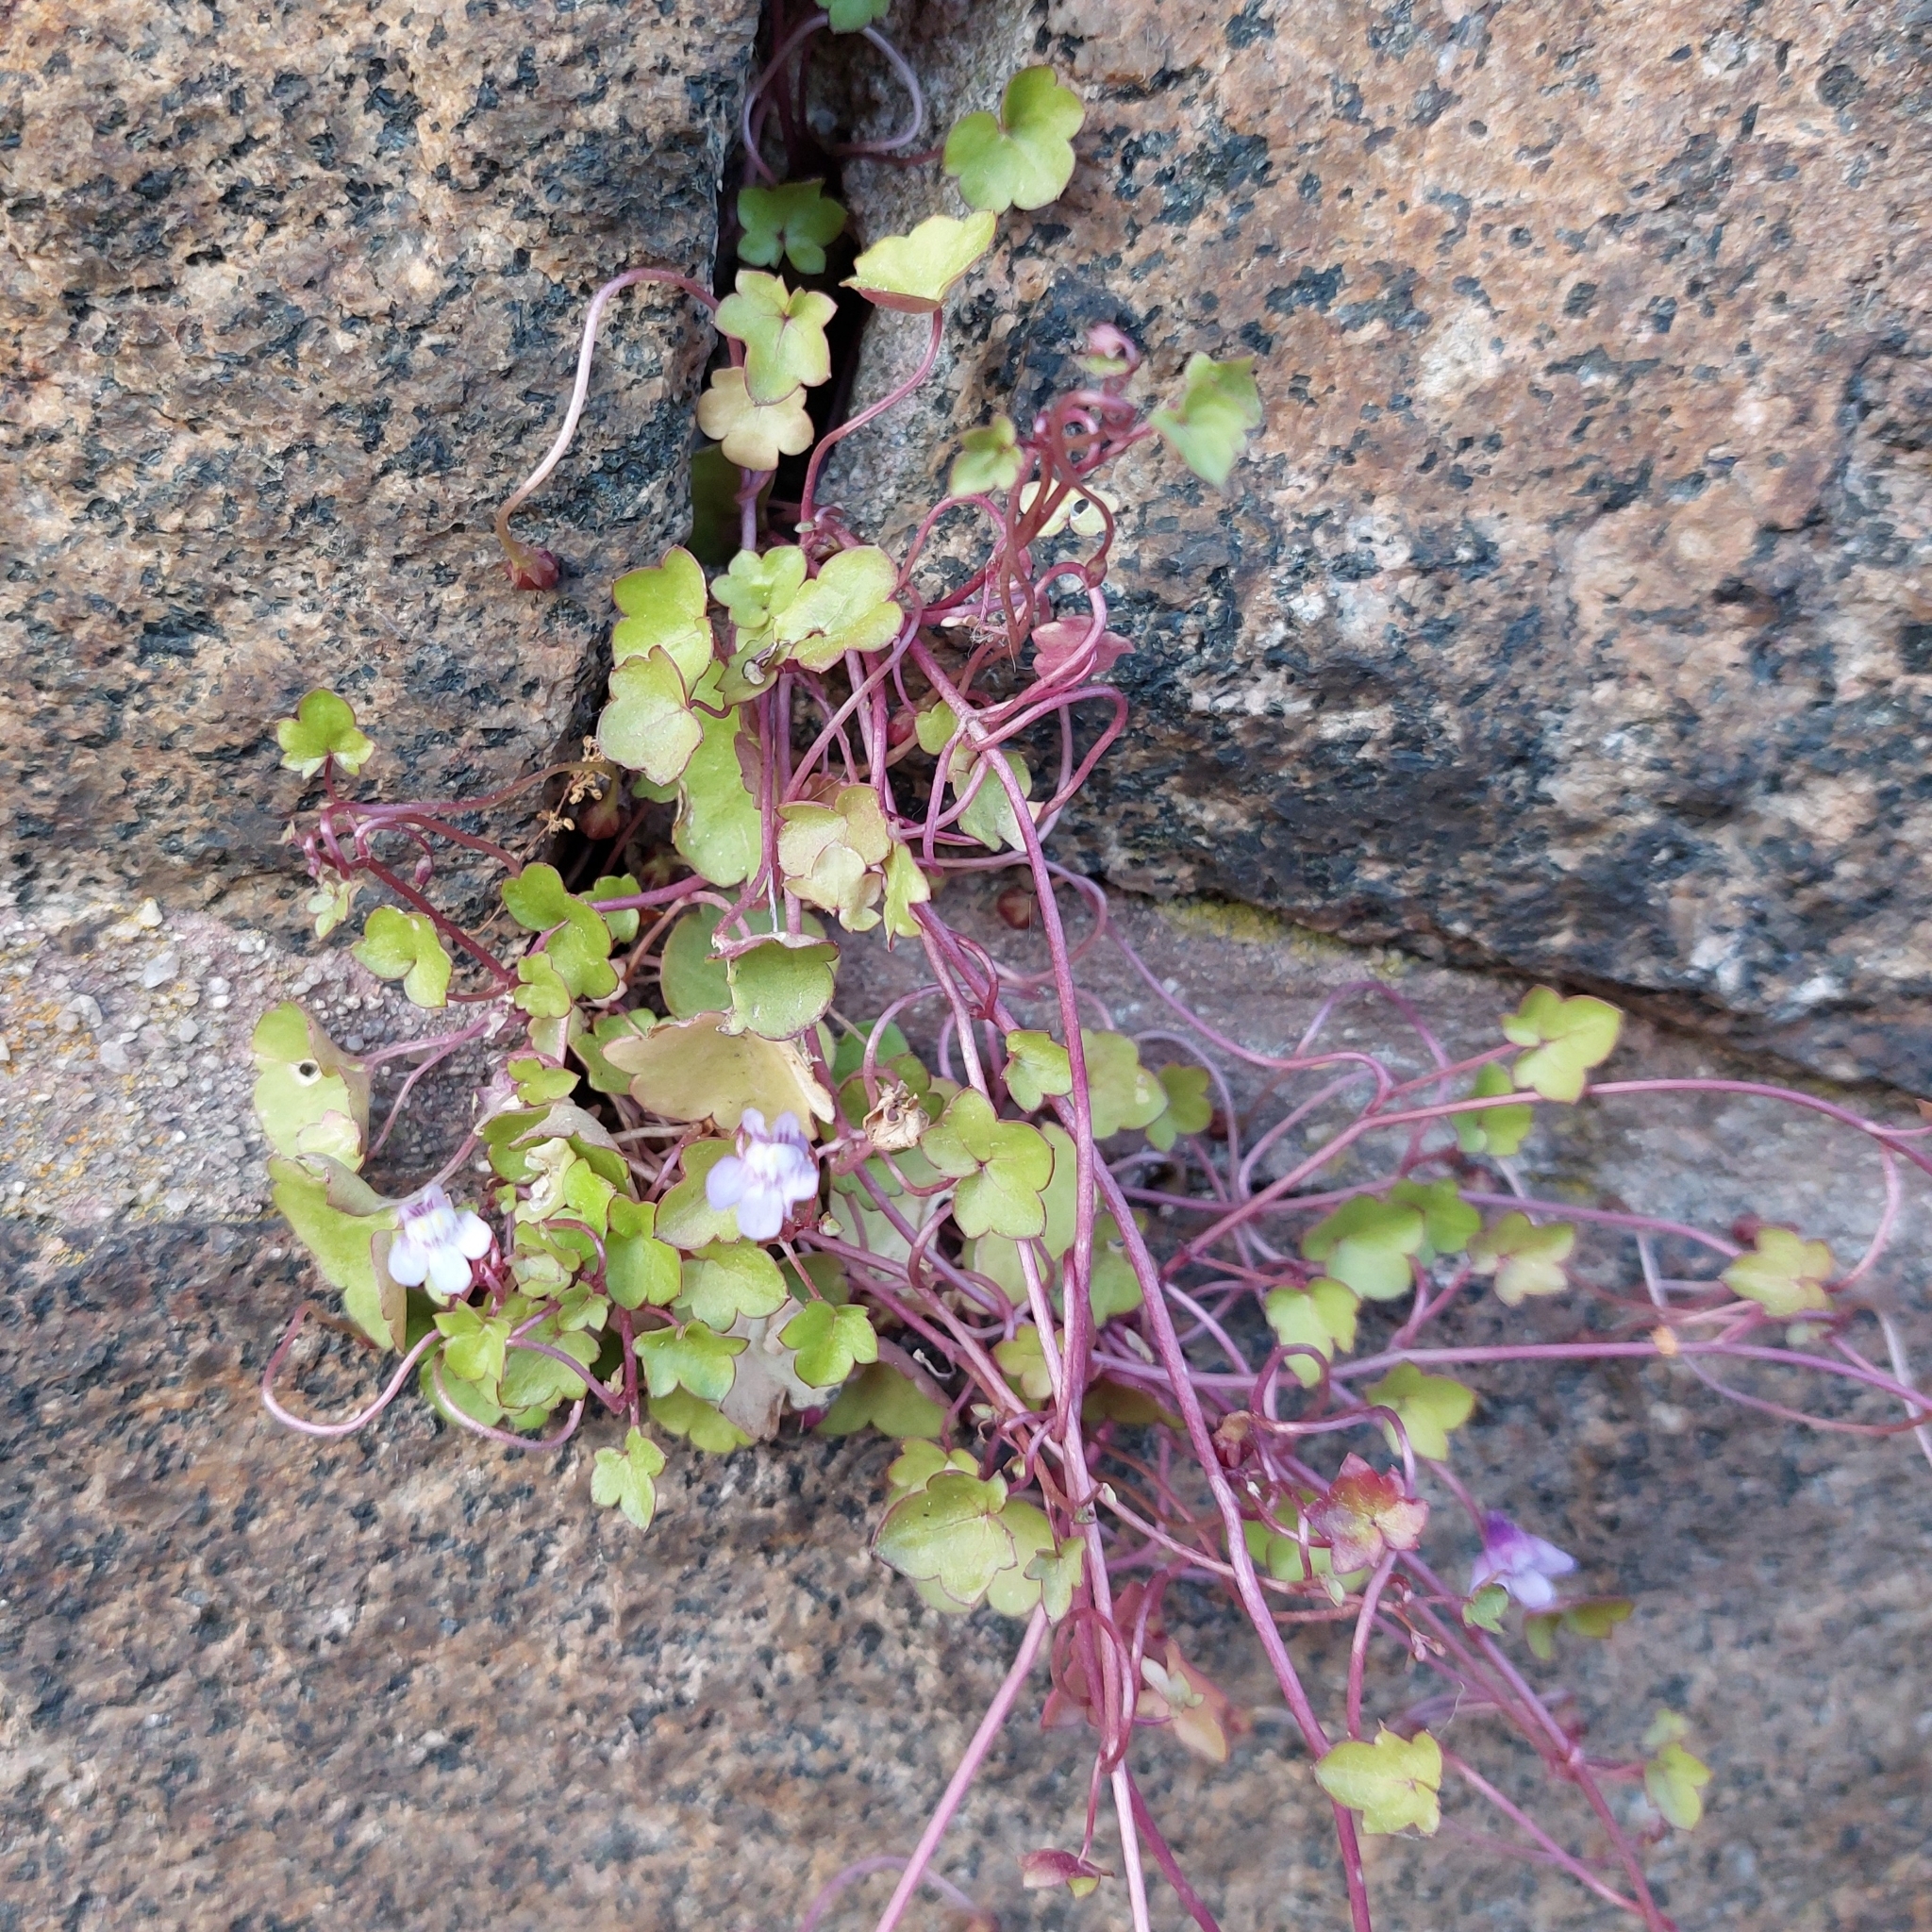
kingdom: Plantae
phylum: Tracheophyta
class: Magnoliopsida
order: Lamiales
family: Plantaginaceae
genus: Cymbalaria
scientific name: Cymbalaria muralis
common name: Ivy-leaved toadflax
